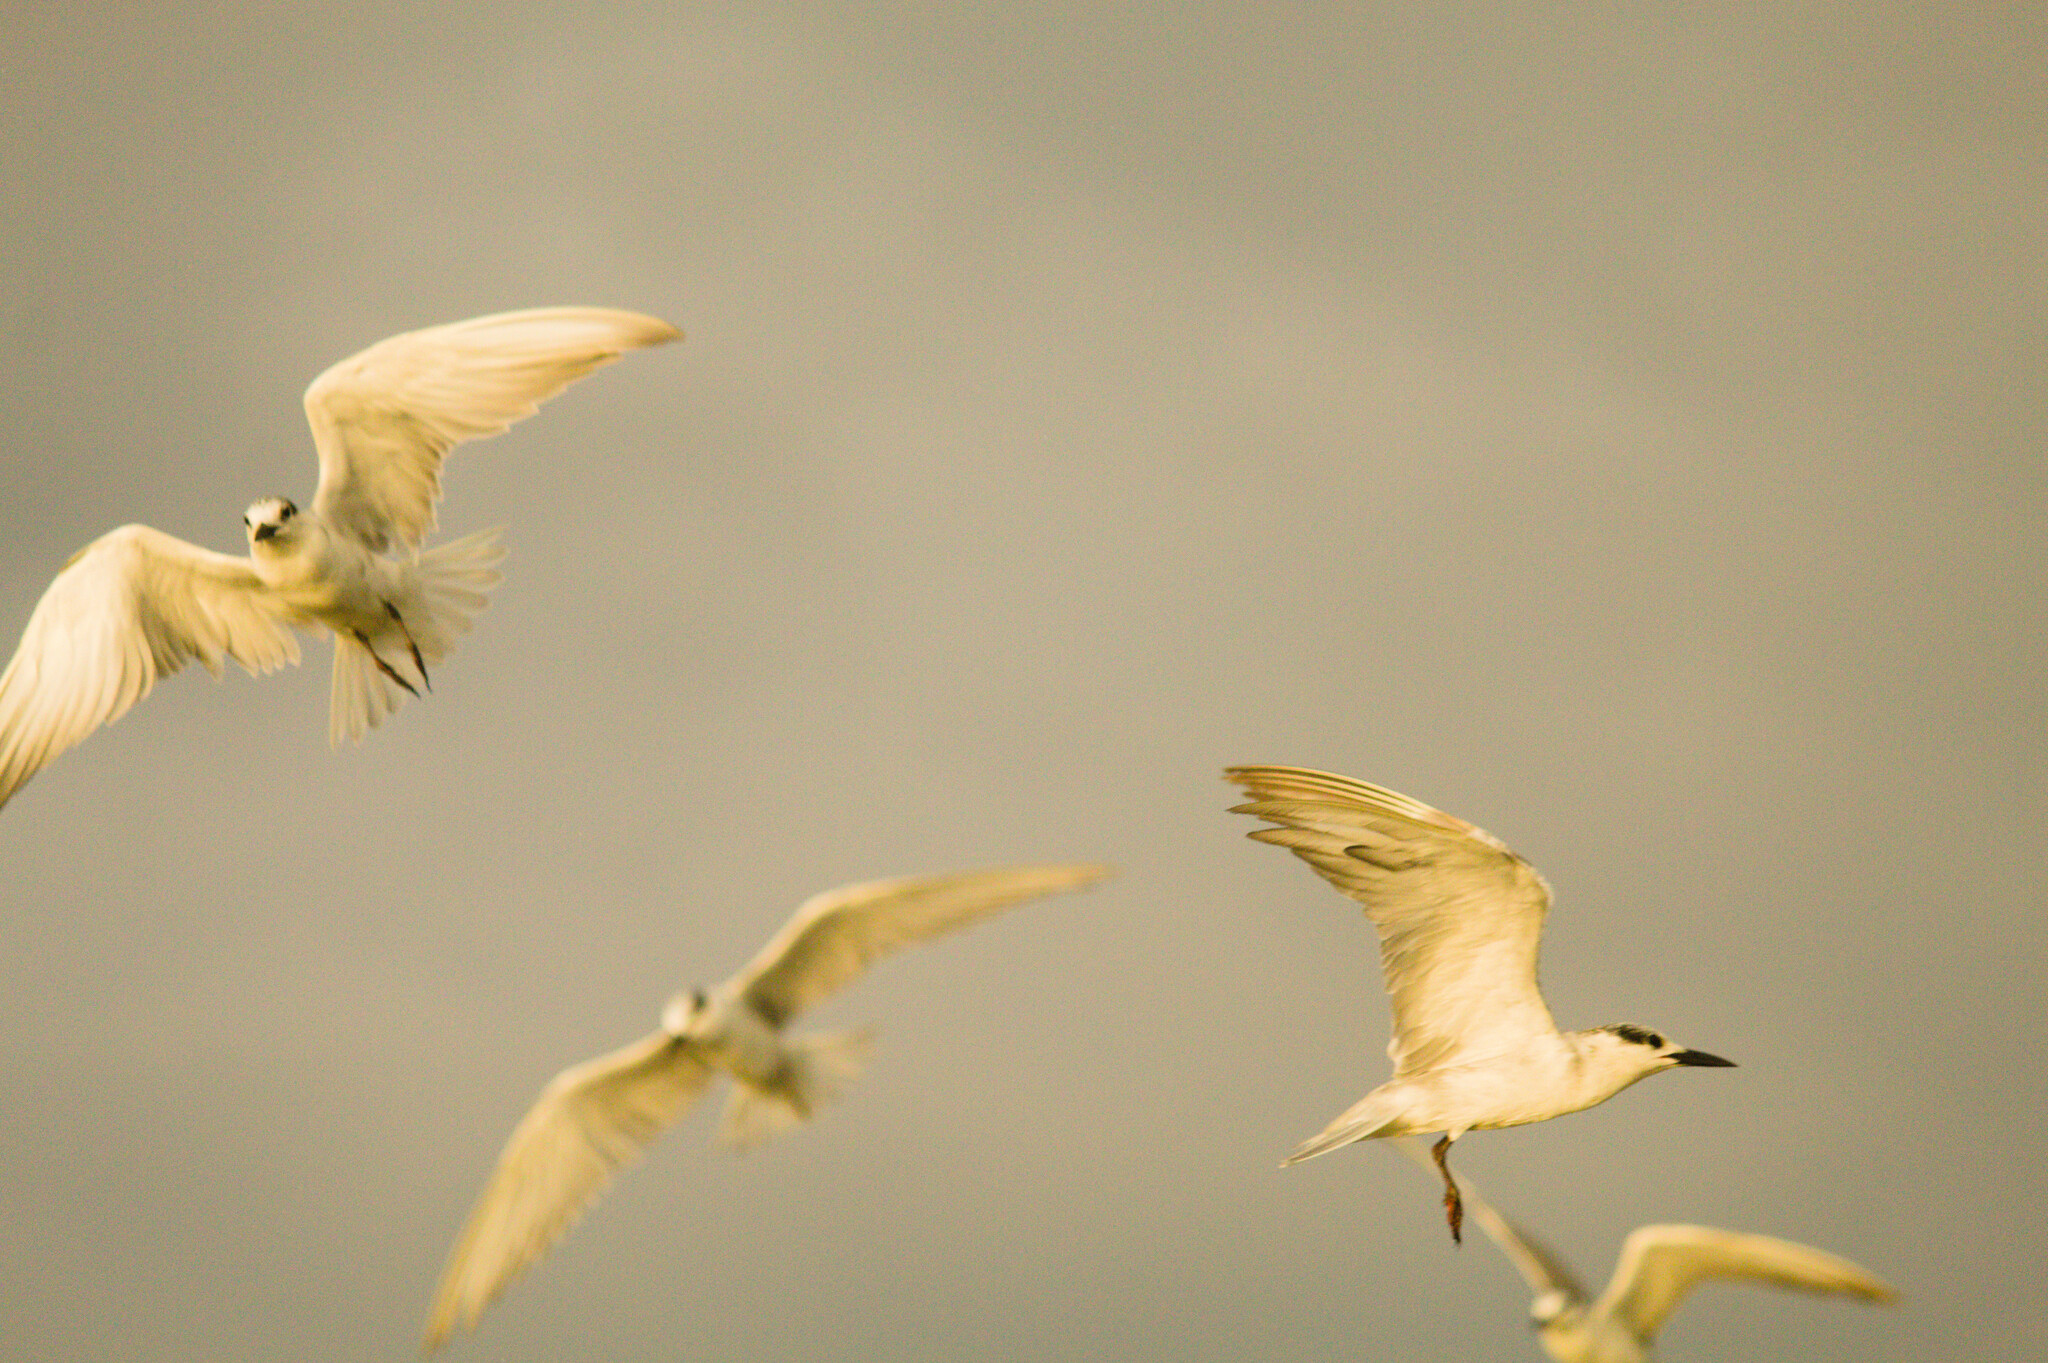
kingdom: Animalia
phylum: Chordata
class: Aves
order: Charadriiformes
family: Laridae
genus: Chlidonias
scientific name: Chlidonias hybrida
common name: Whiskered tern
